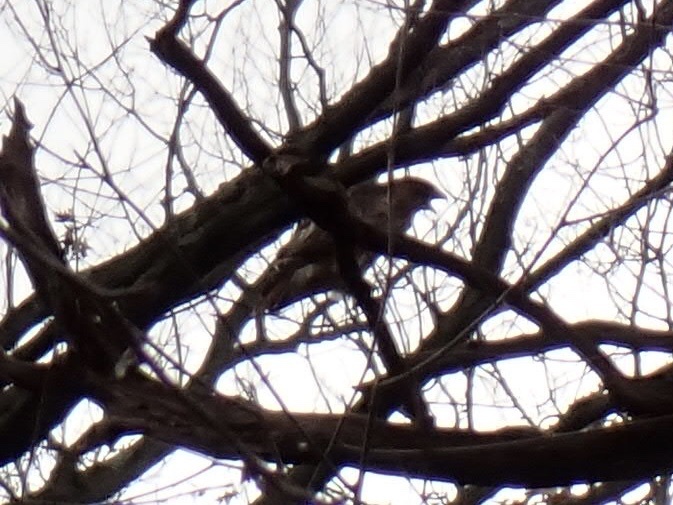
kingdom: Animalia
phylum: Chordata
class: Aves
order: Accipitriformes
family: Accipitridae
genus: Buteo
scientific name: Buteo jamaicensis
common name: Red-tailed hawk
